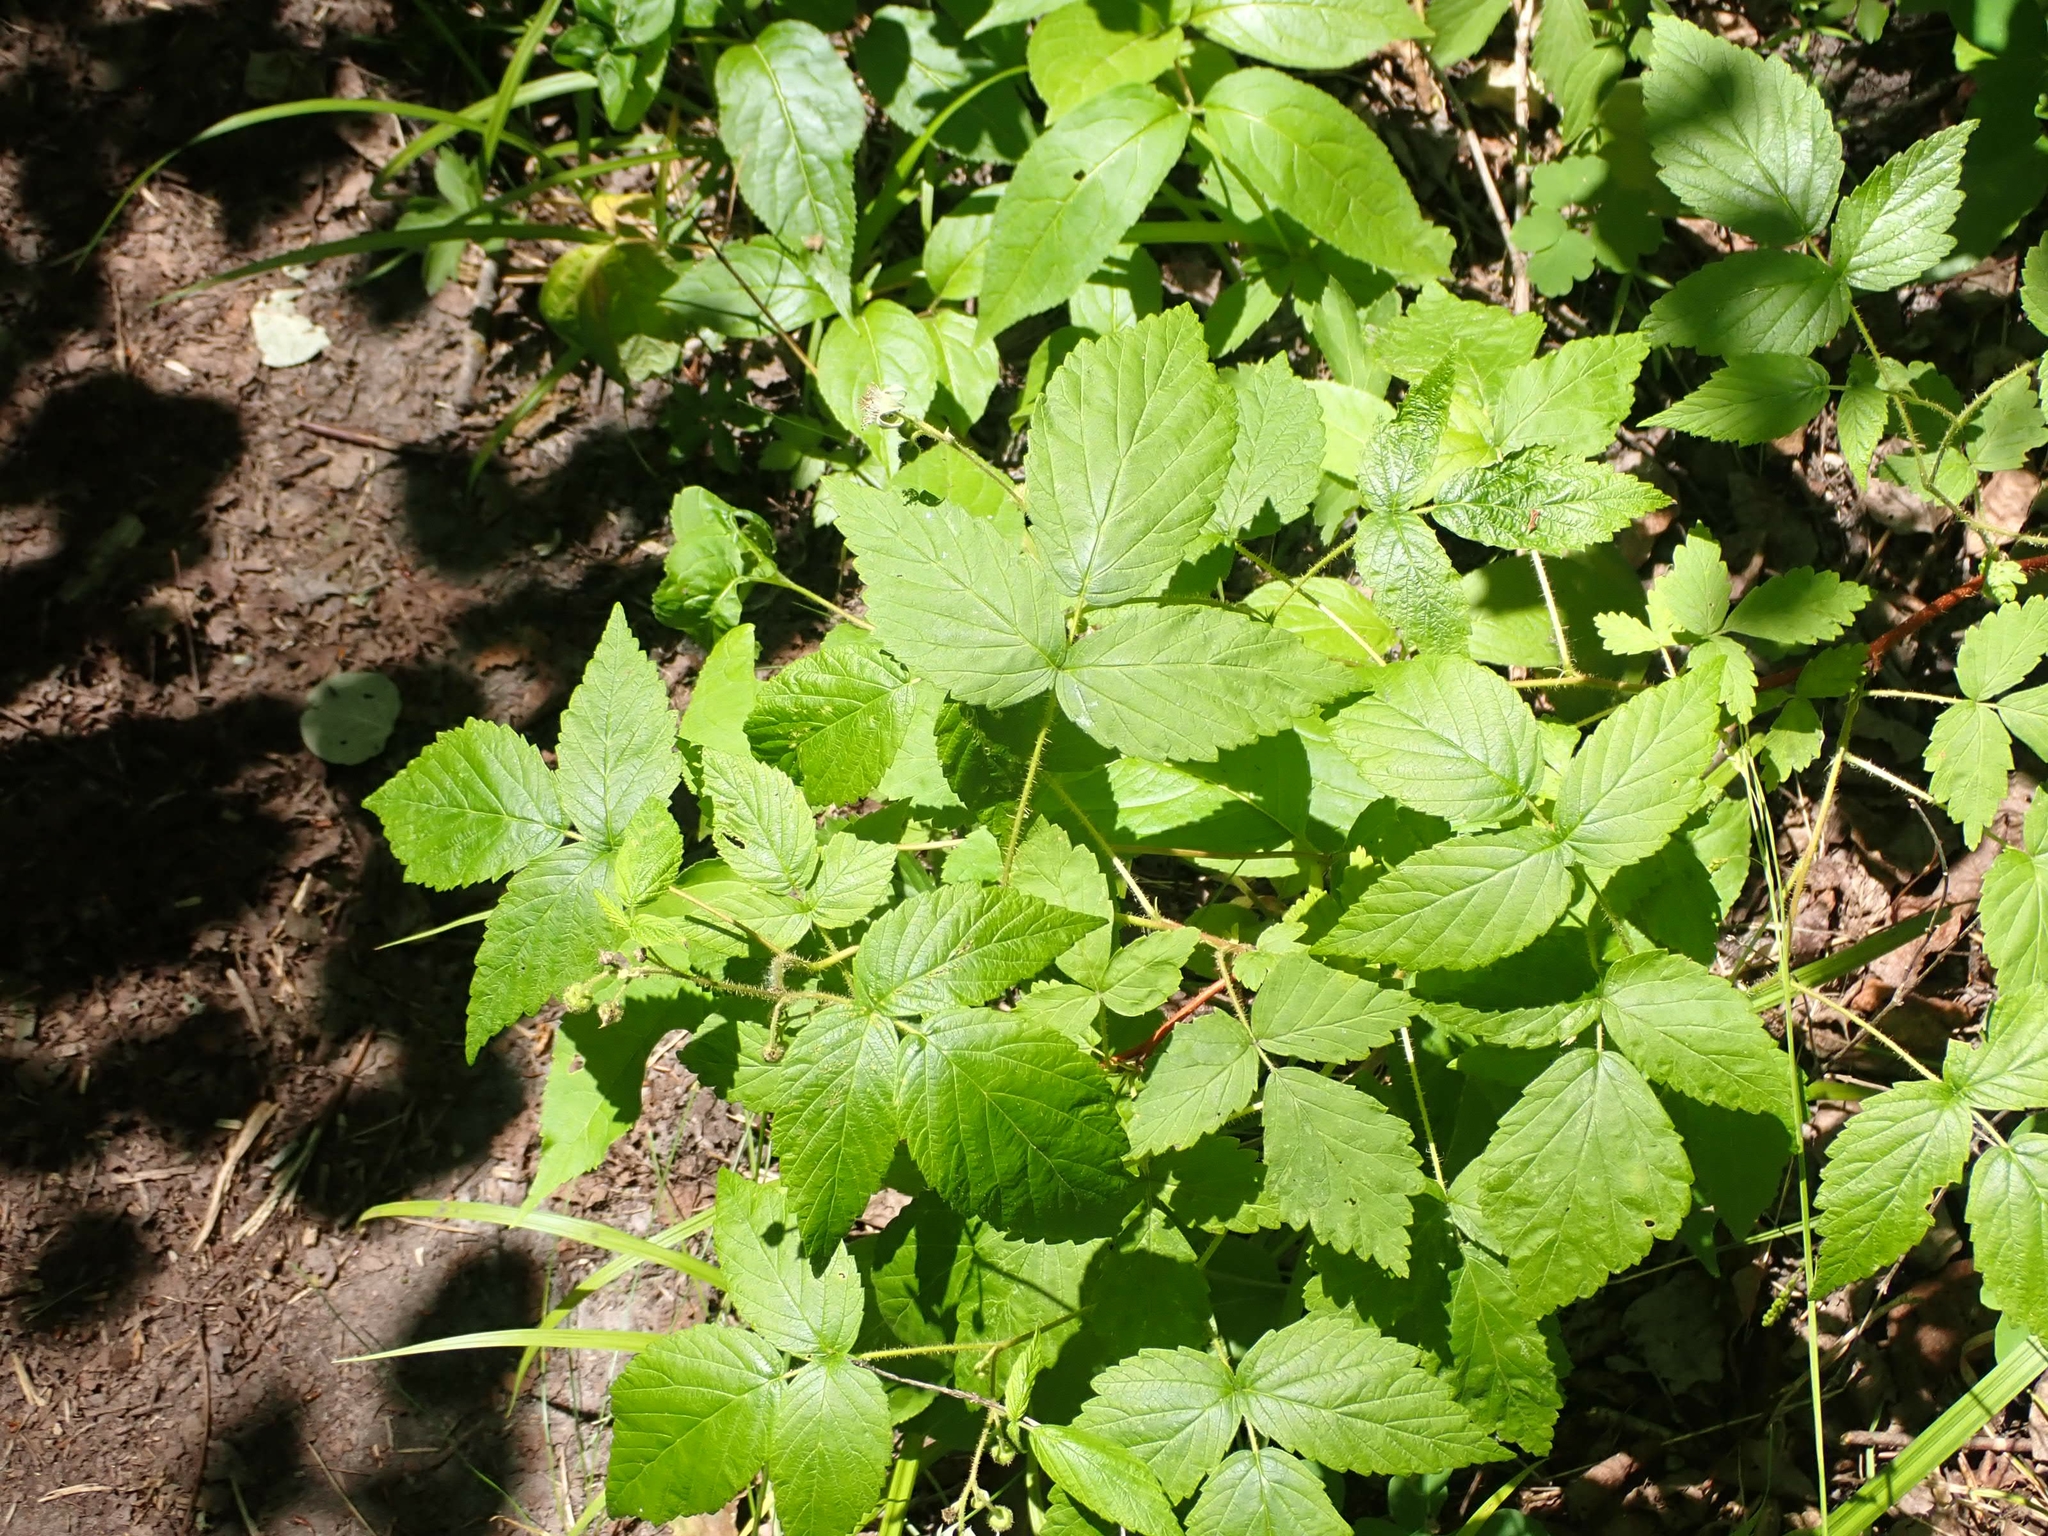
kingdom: Plantae
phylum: Tracheophyta
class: Magnoliopsida
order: Rosales
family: Rosaceae
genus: Rubus
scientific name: Rubus idaeus
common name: Raspberry
